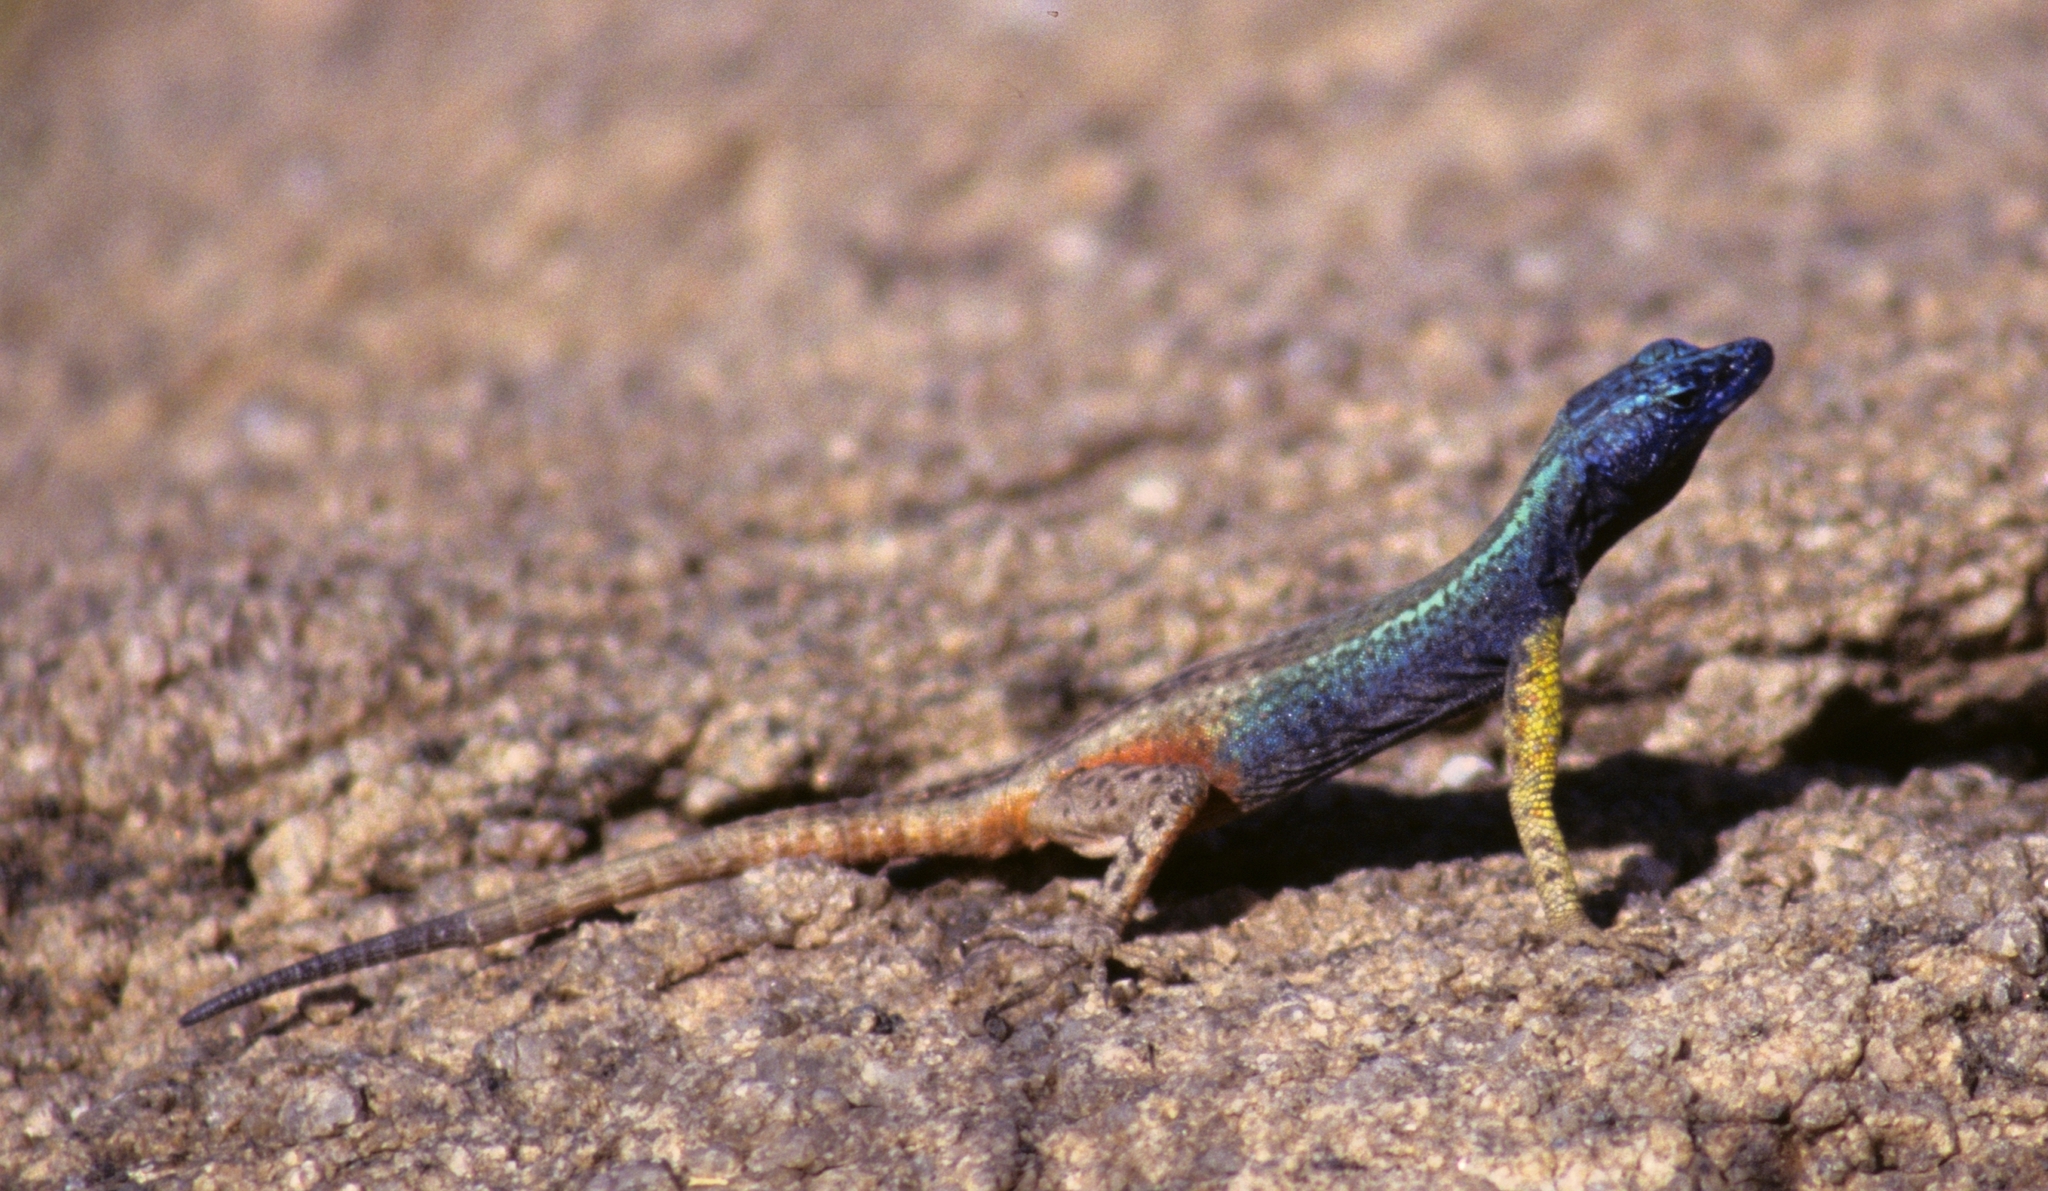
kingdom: Animalia
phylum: Chordata
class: Squamata
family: Cordylidae
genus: Platysaurus
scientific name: Platysaurus broadleyi
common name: Augrabies flat lizard
